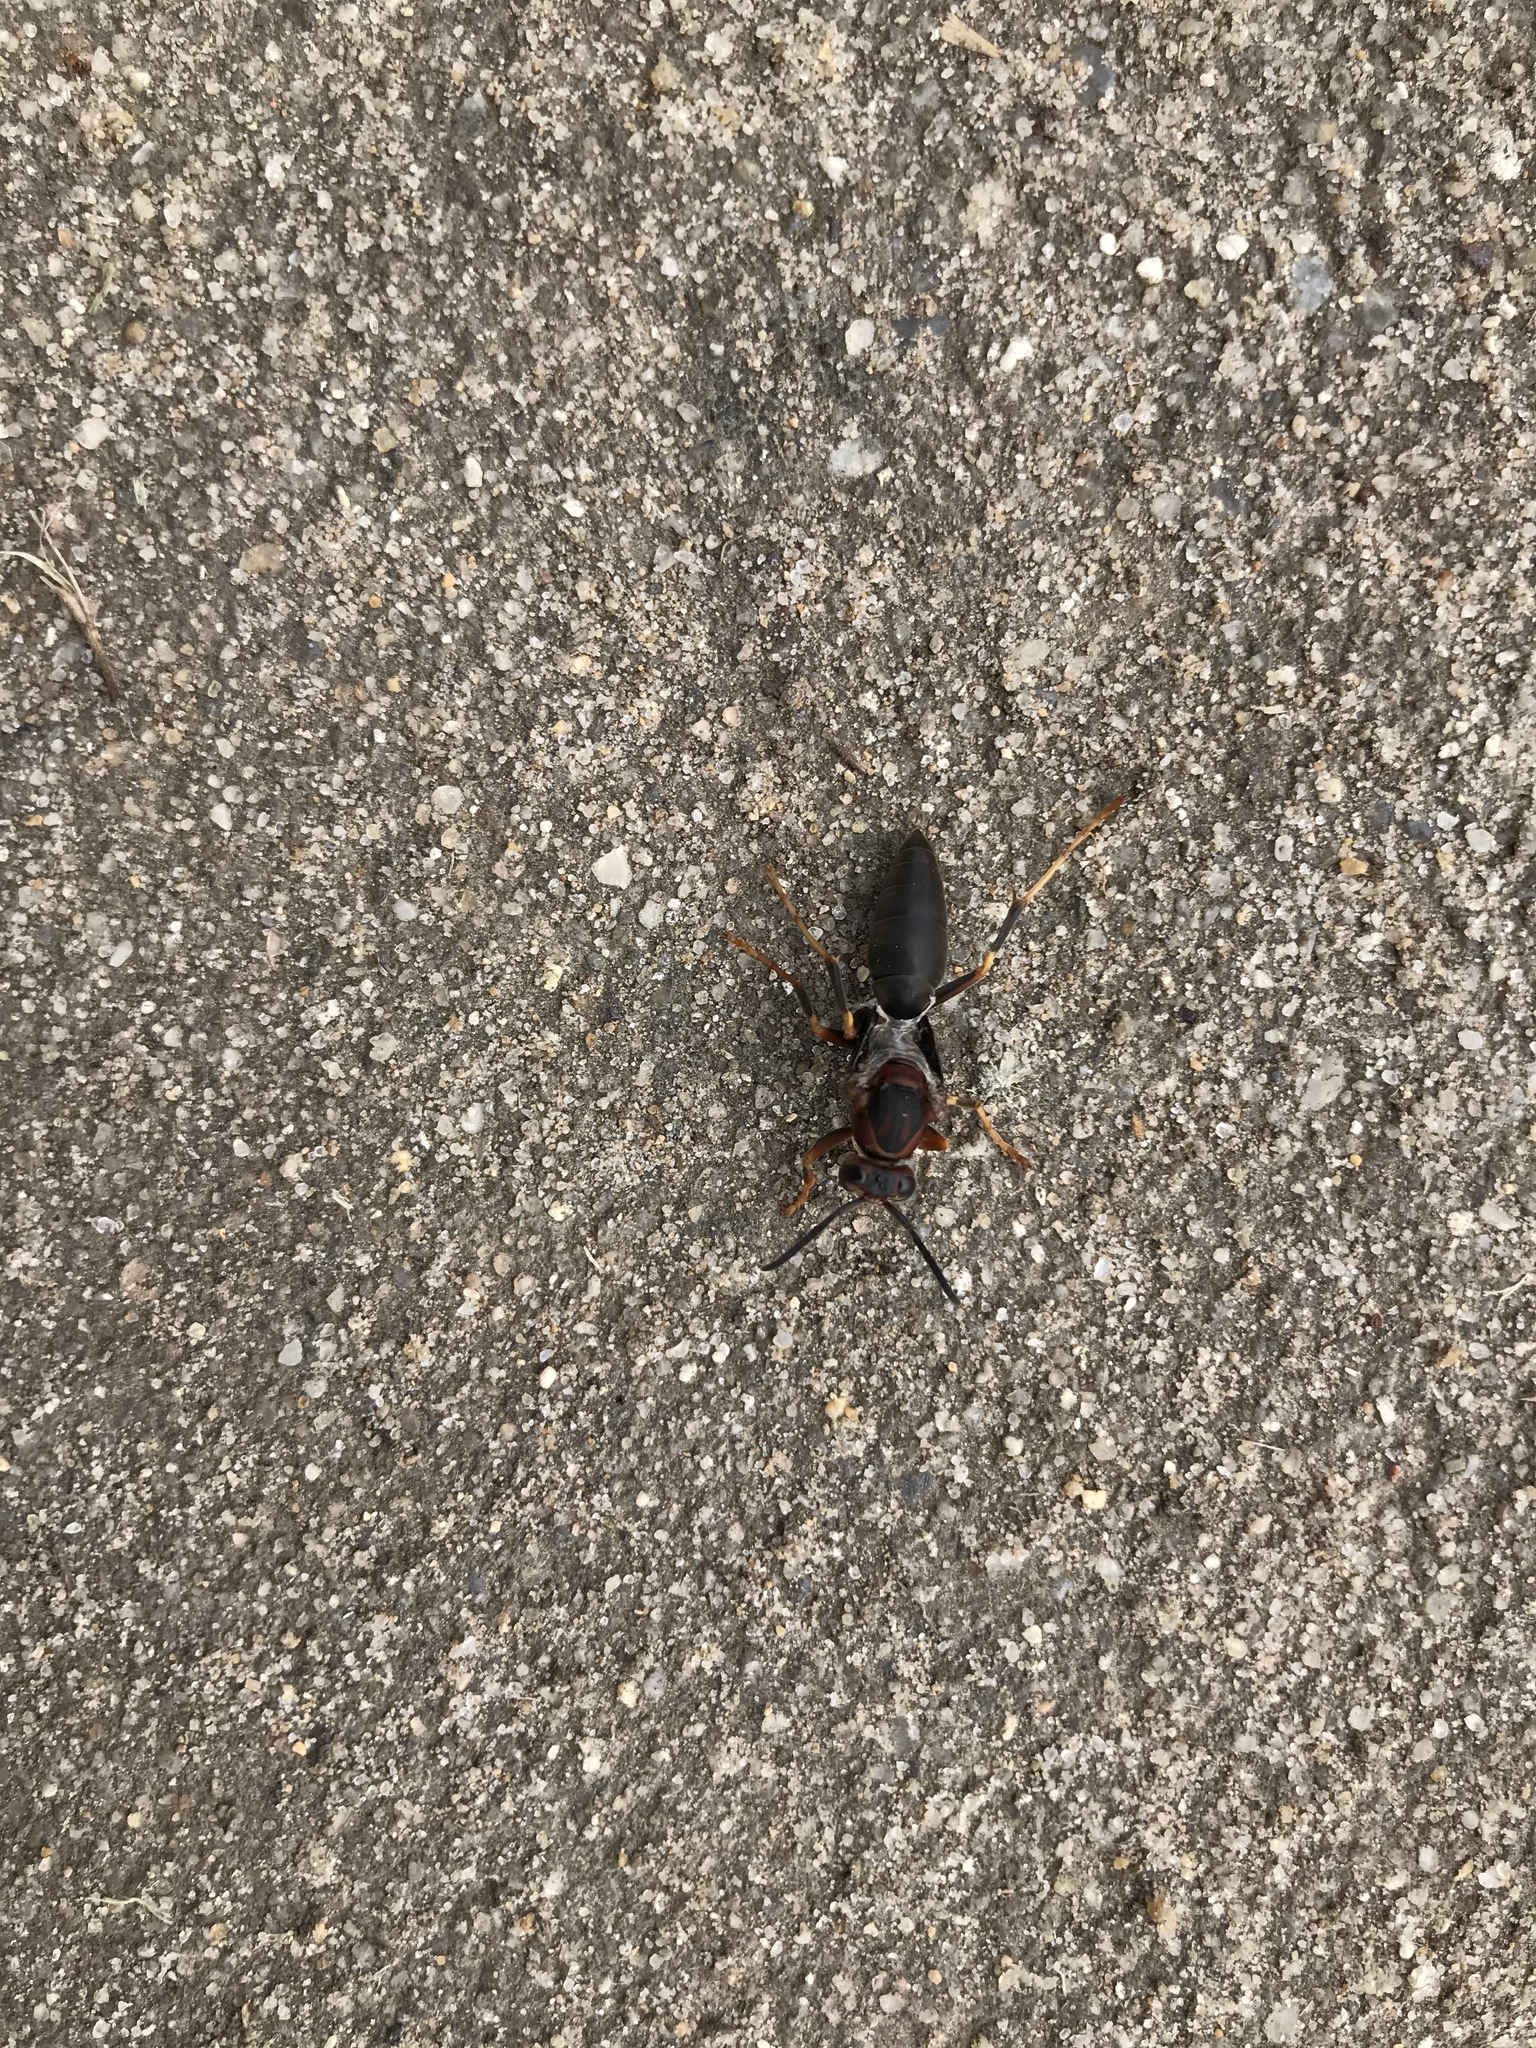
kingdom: Animalia
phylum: Arthropoda
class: Insecta
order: Hymenoptera
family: Eumenidae
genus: Polistes
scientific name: Polistes metricus
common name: Metric paper wasp
